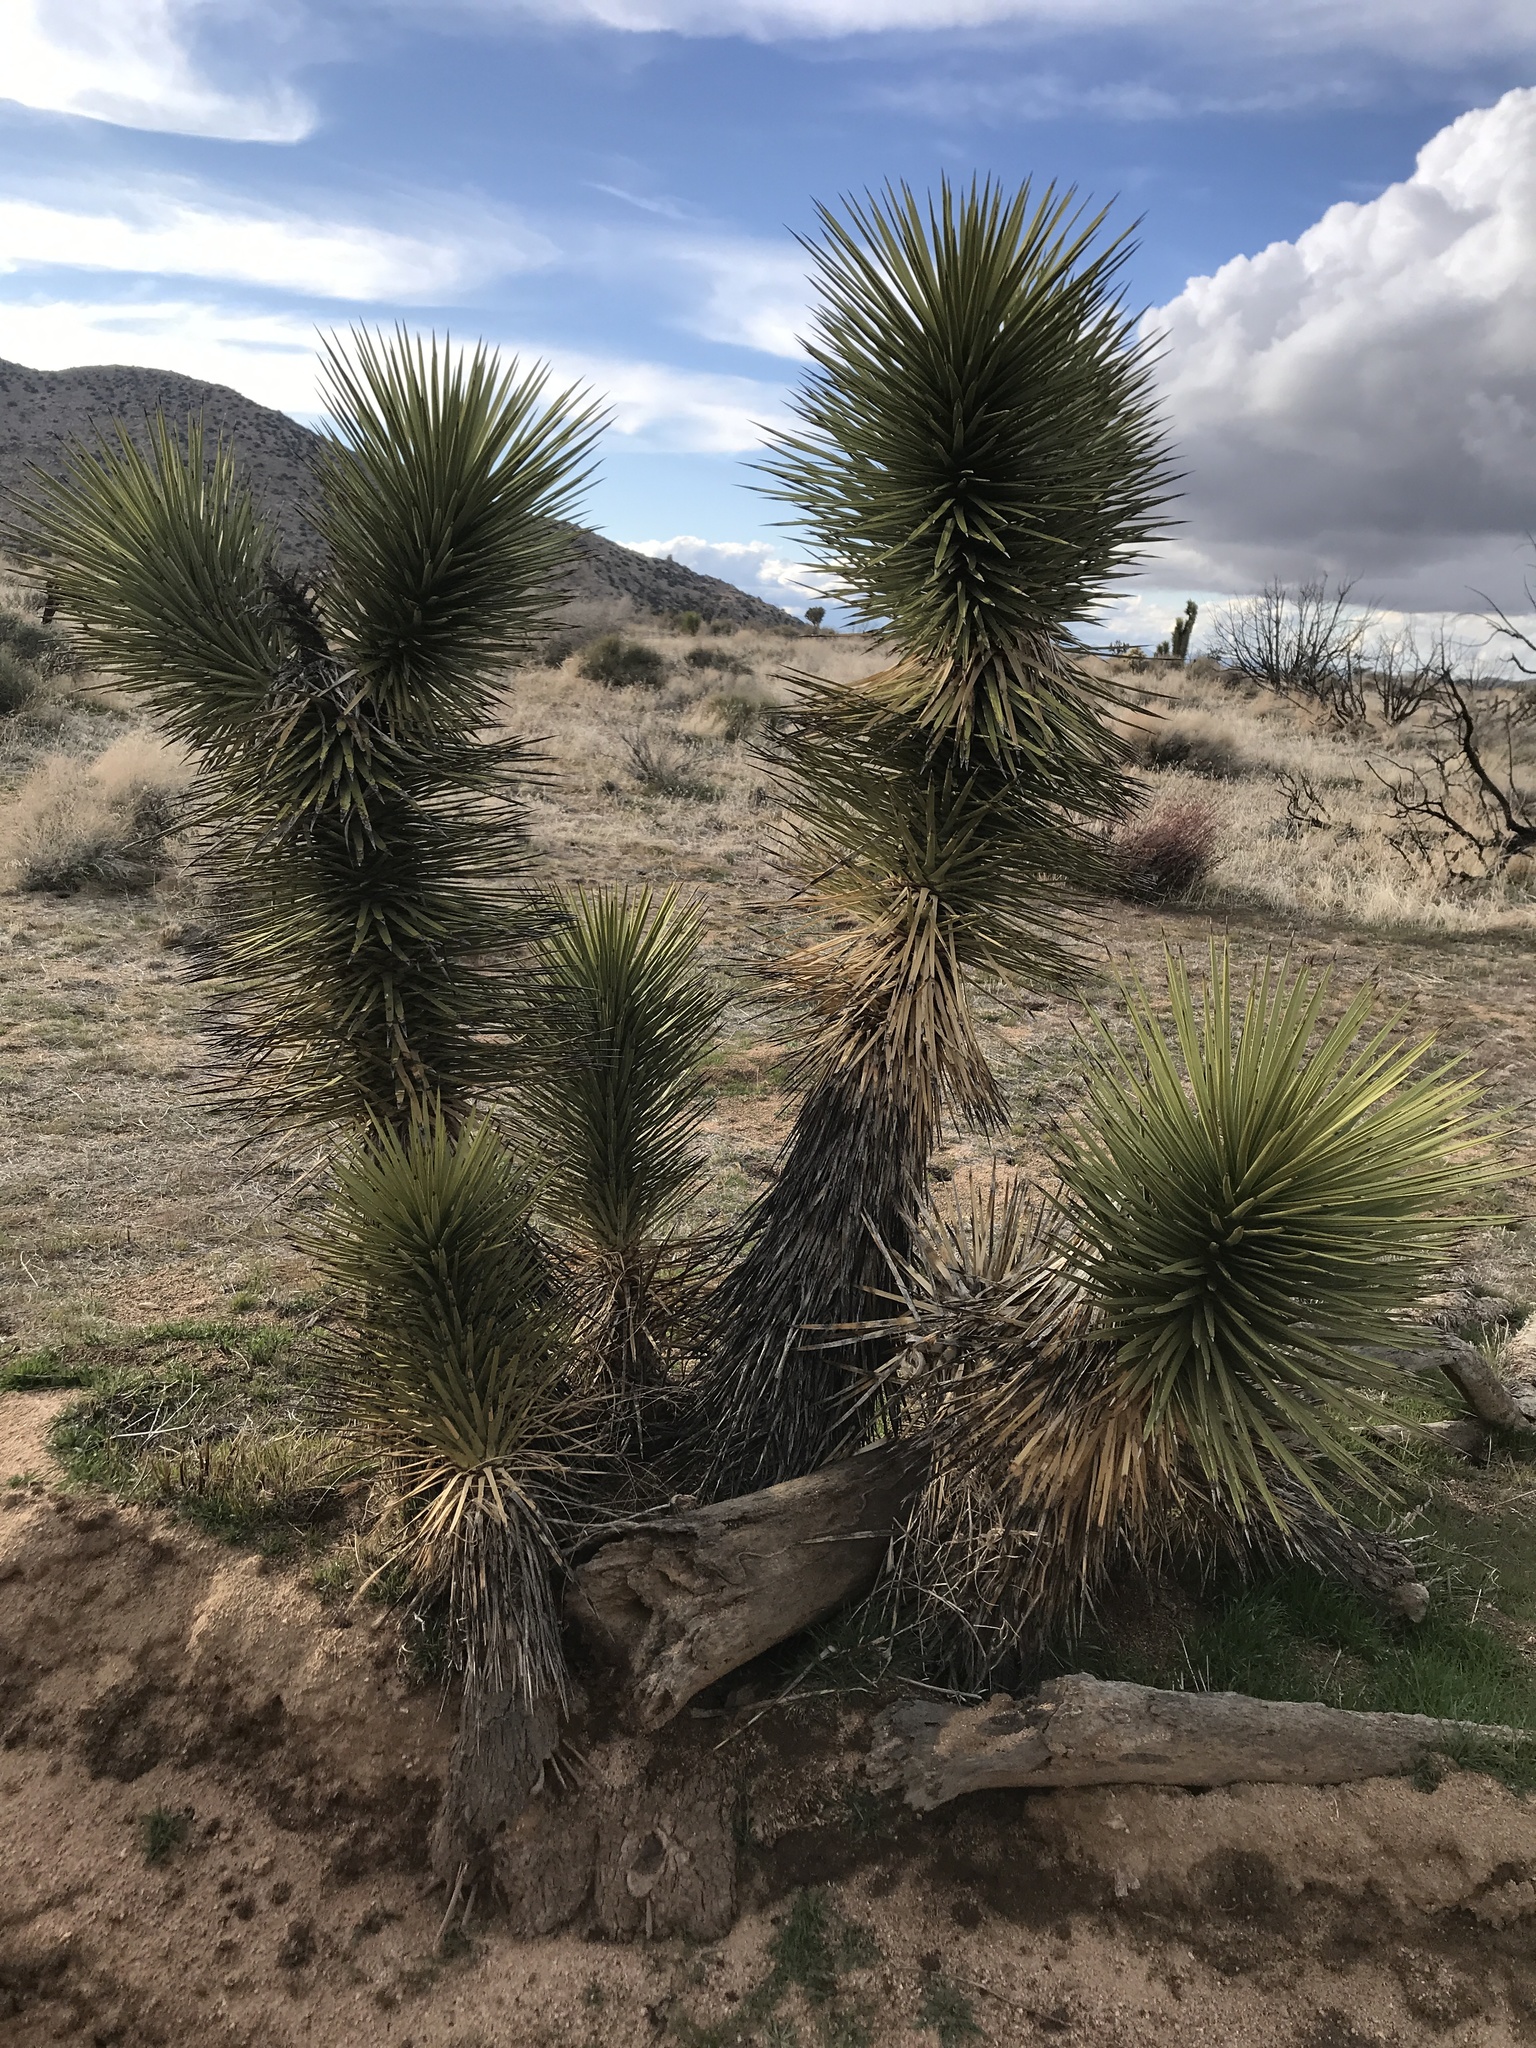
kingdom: Plantae
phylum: Tracheophyta
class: Liliopsida
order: Asparagales
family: Asparagaceae
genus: Yucca
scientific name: Yucca brevifolia
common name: Joshua tree
